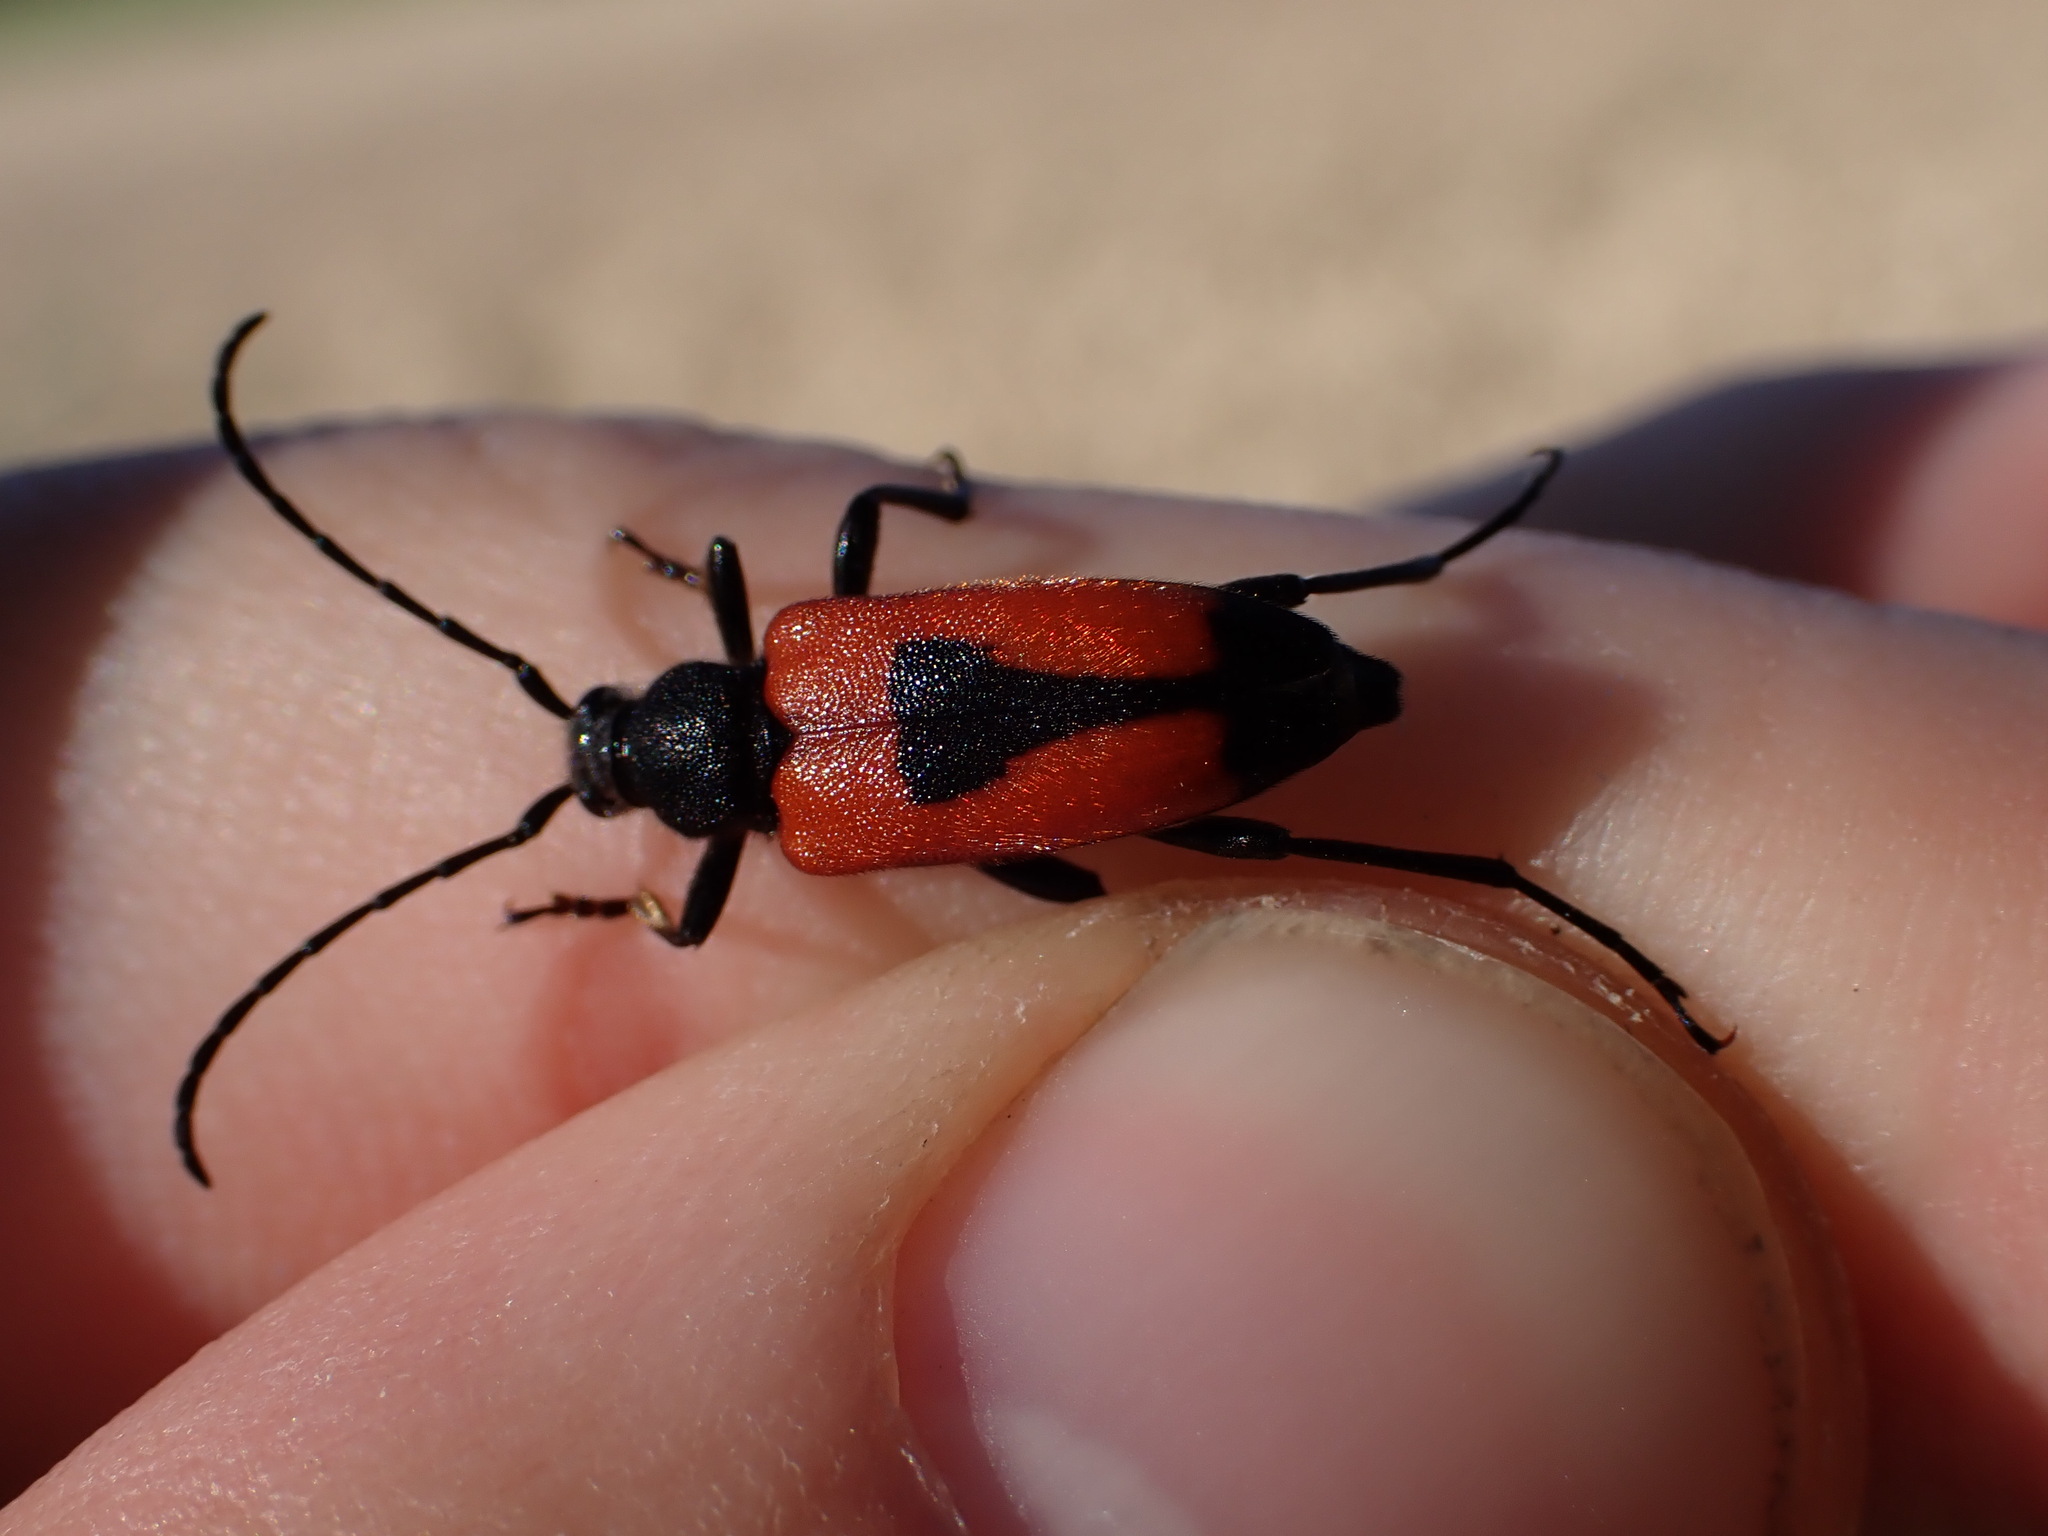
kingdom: Animalia
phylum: Arthropoda
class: Insecta
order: Coleoptera
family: Cerambycidae
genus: Stictoleptura
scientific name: Stictoleptura cordigera
